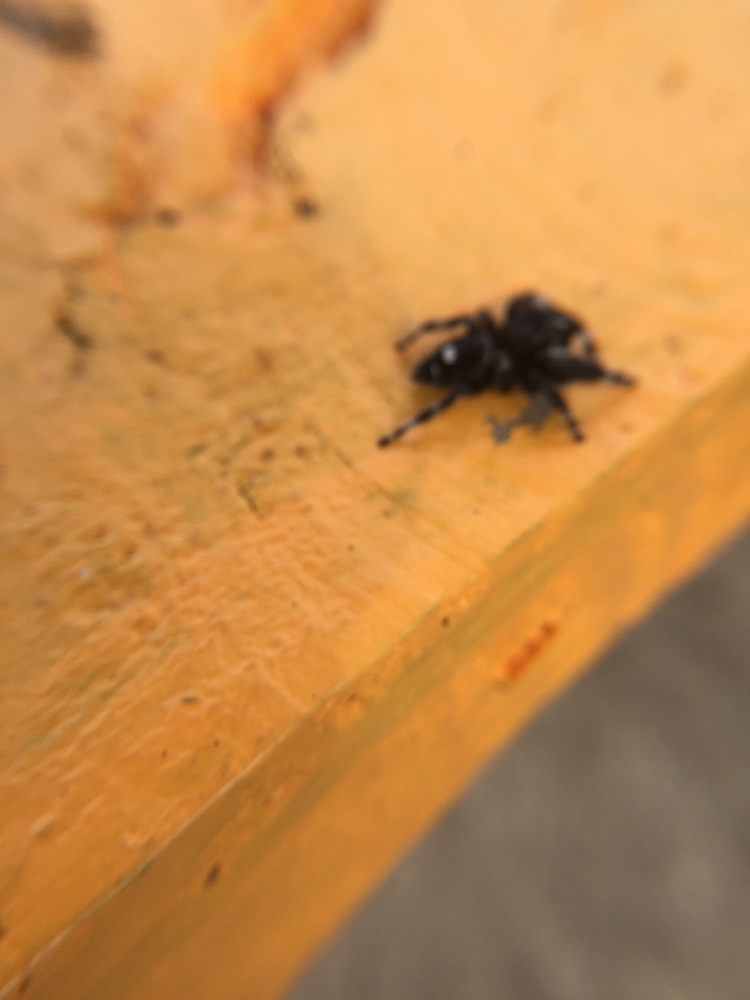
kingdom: Animalia
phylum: Arthropoda
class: Arachnida
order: Araneae
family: Salticidae
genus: Phidippus
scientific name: Phidippus audax
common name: Bold jumper
